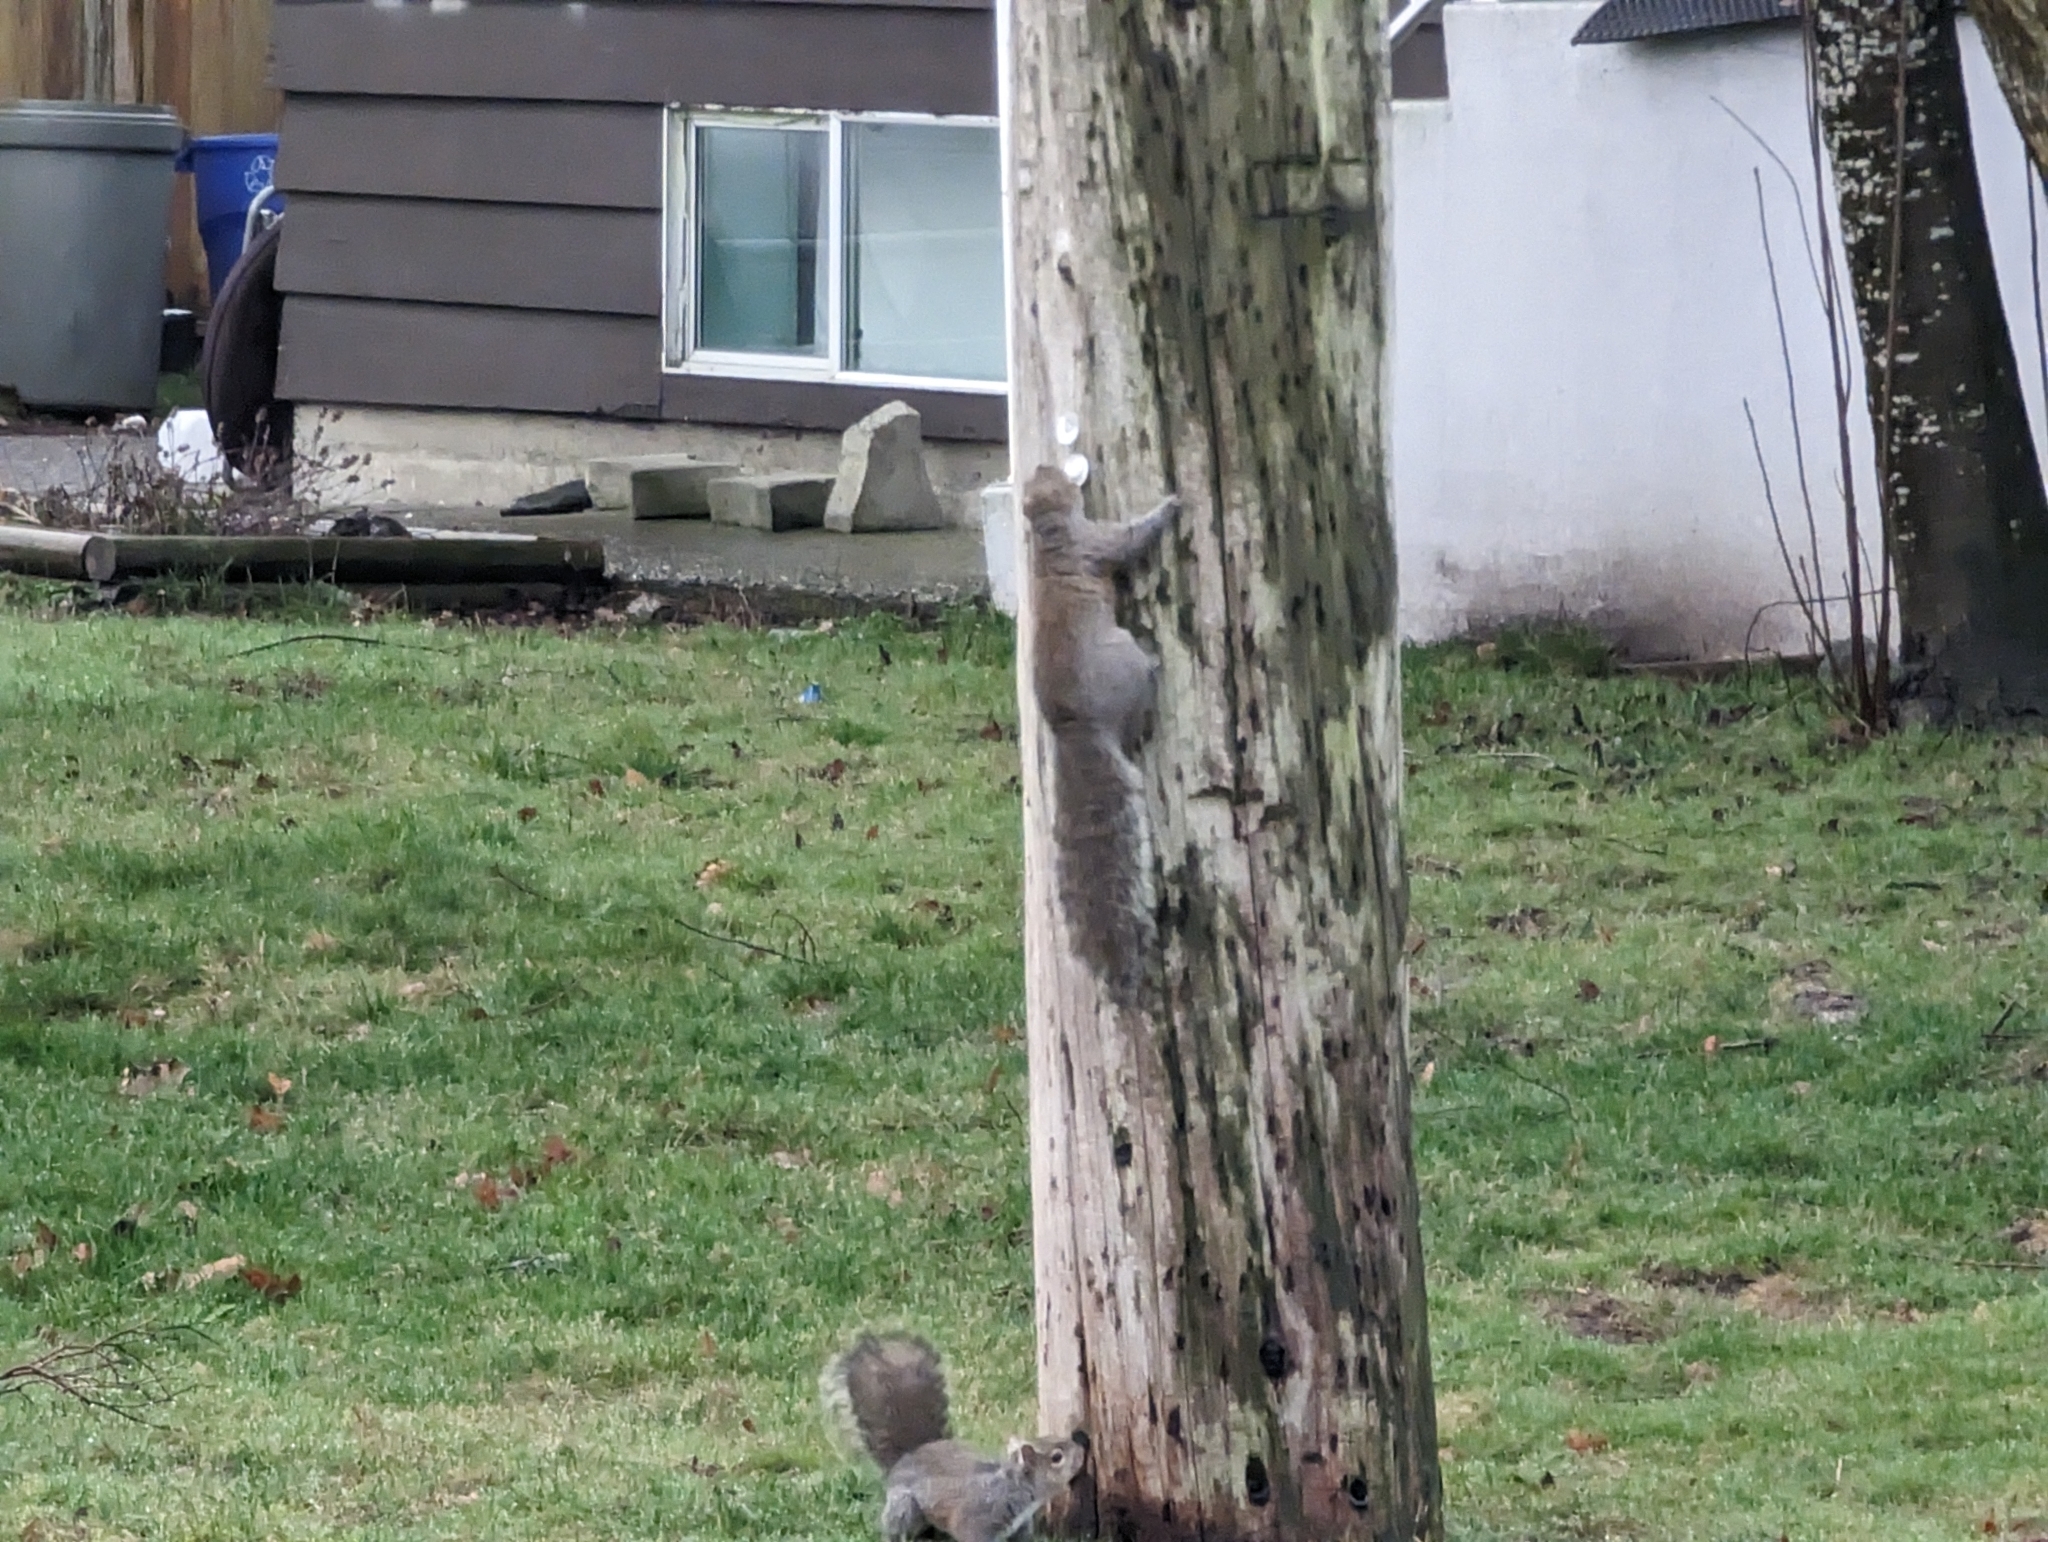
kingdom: Animalia
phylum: Chordata
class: Mammalia
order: Rodentia
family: Sciuridae
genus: Sciurus
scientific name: Sciurus carolinensis
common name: Eastern gray squirrel
